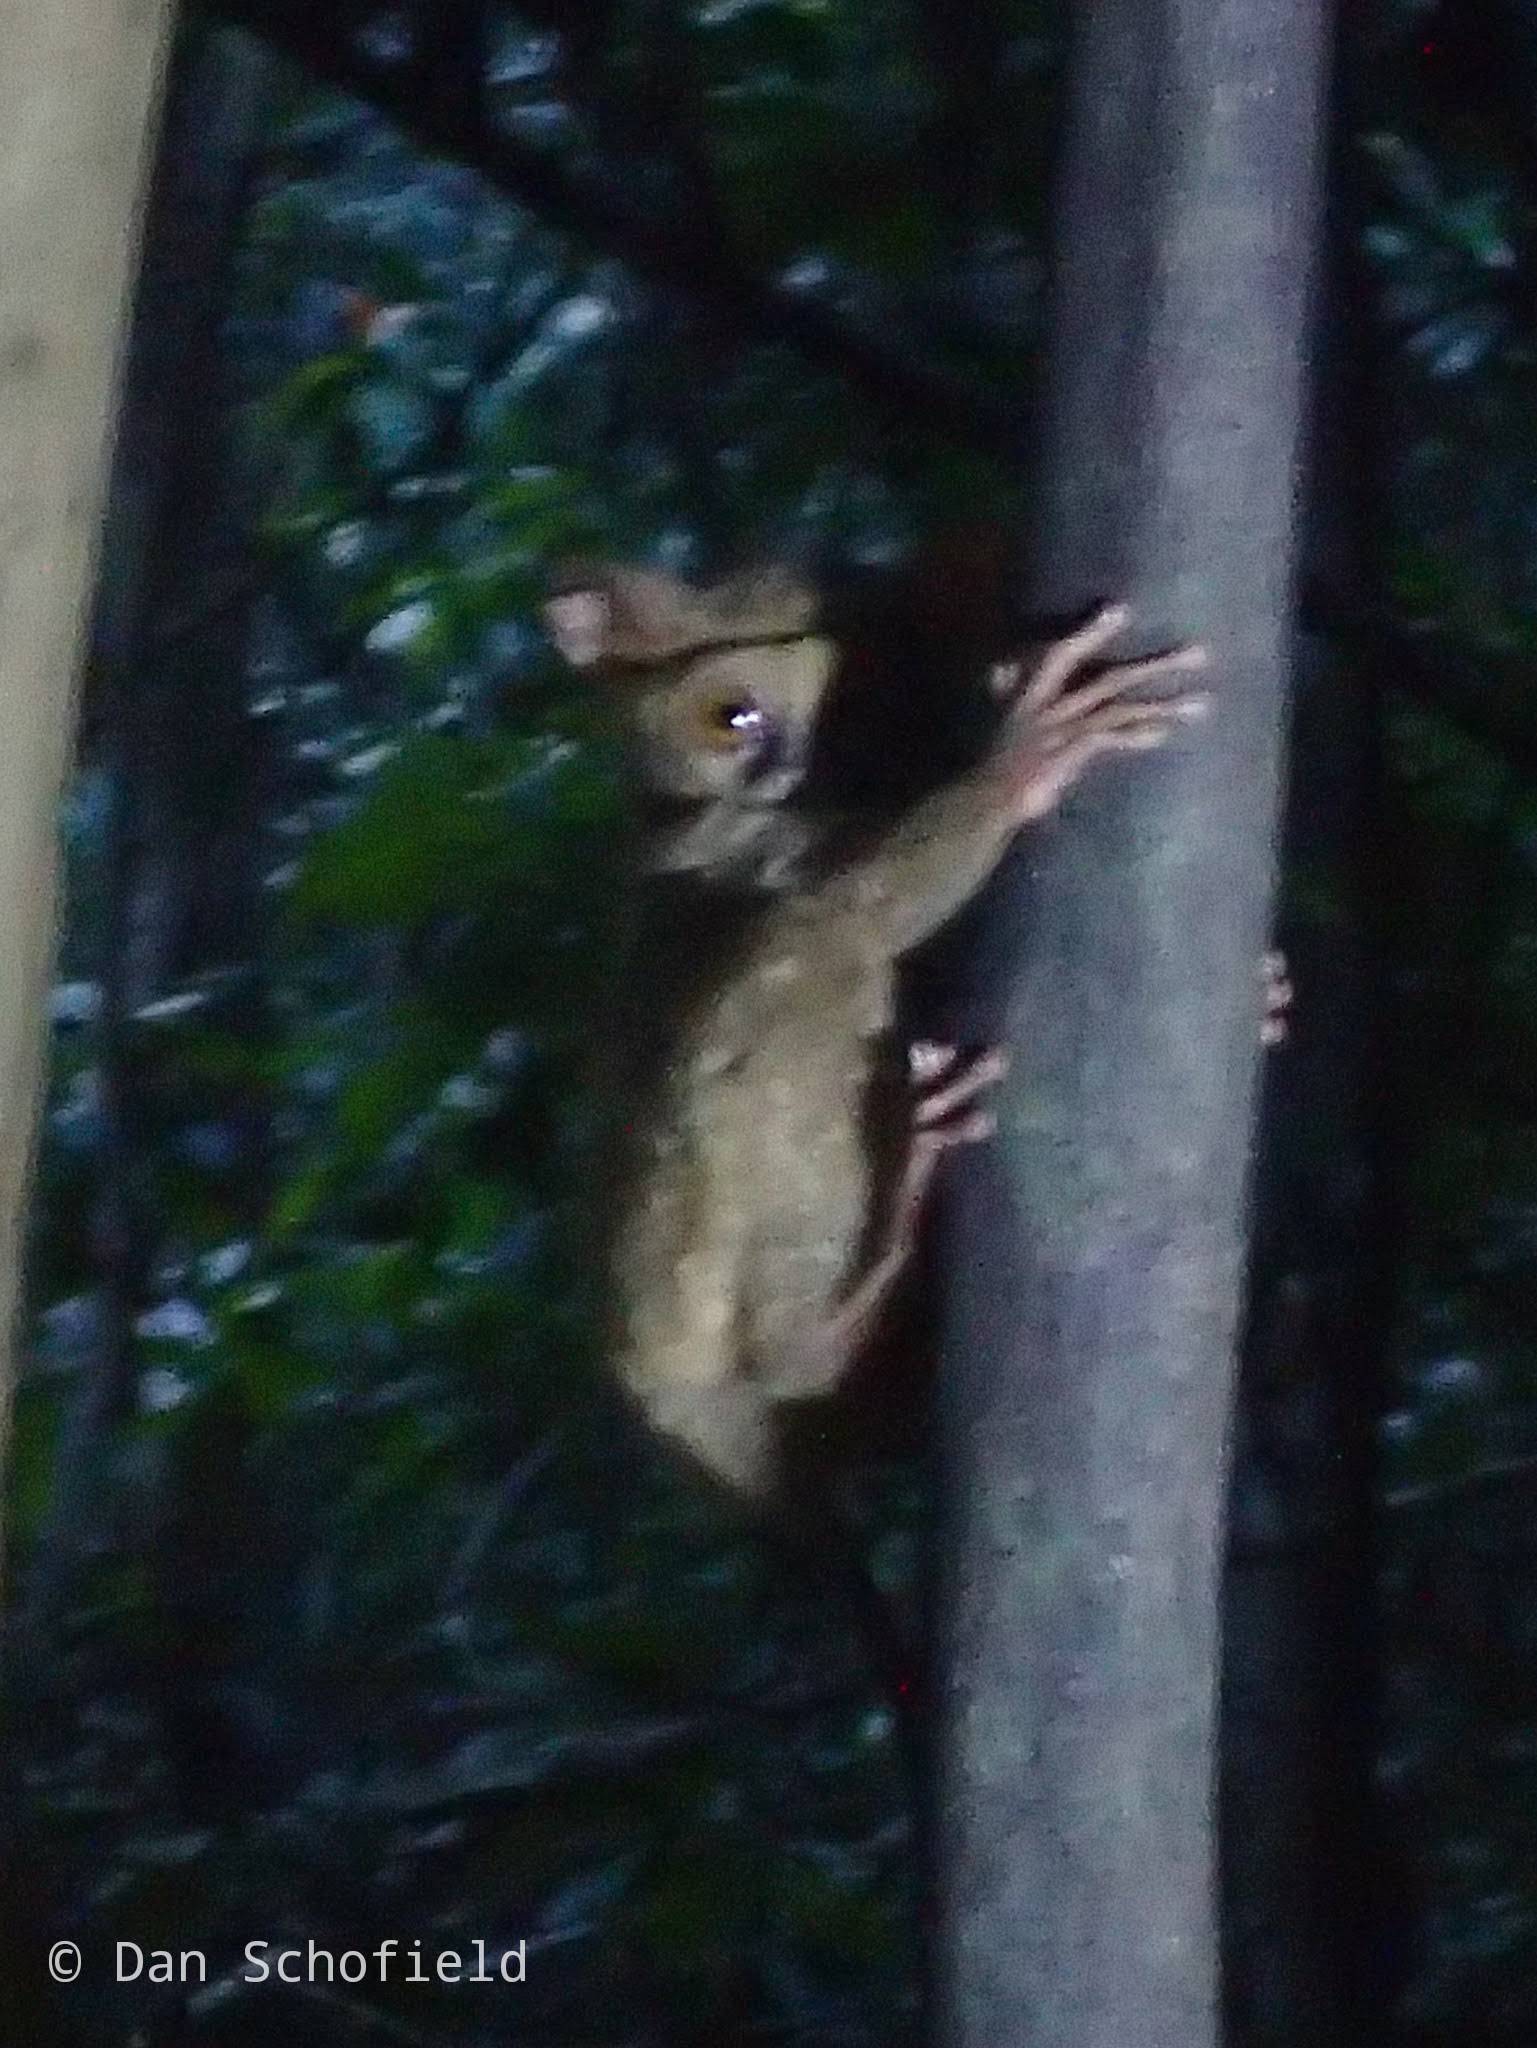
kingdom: Animalia
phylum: Chordata
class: Mammalia
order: Primates
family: Tarsiidae
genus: Tarsius
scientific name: Tarsius spectrumgurskyae
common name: Gursky's spectral tarsier
